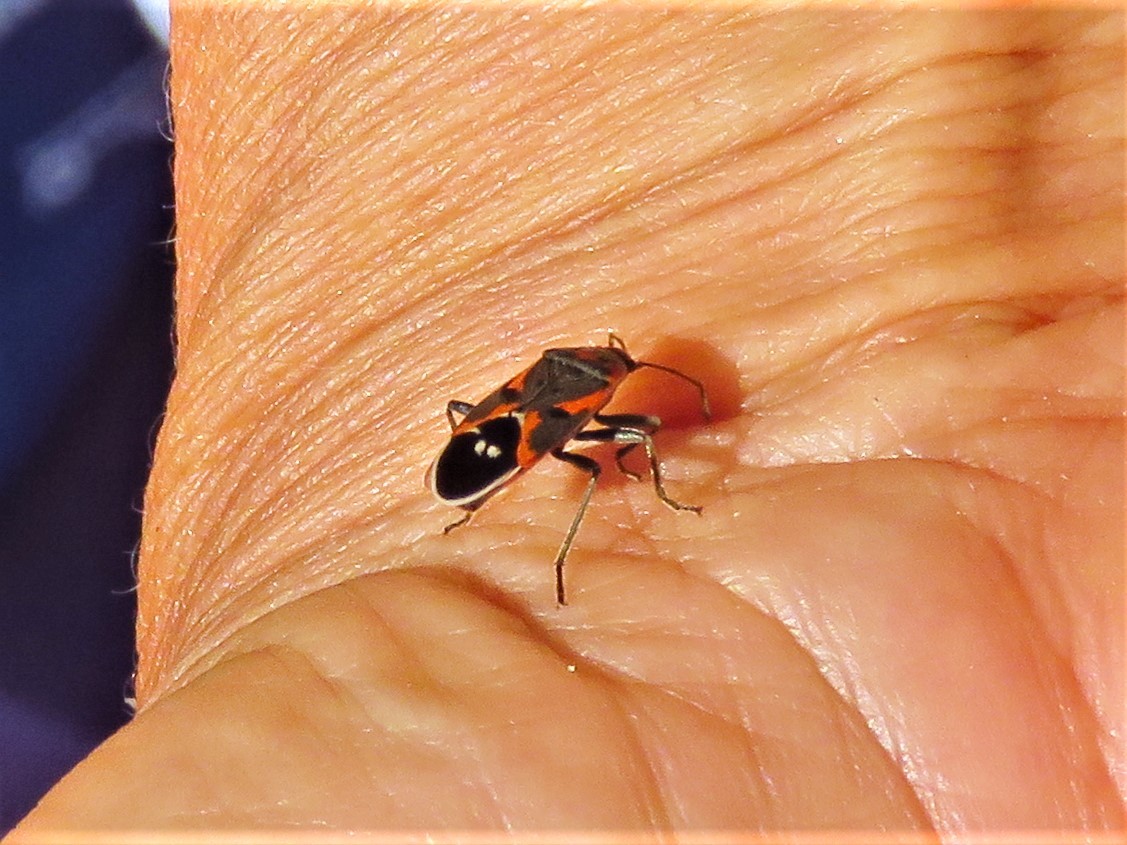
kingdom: Animalia
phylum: Arthropoda
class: Insecta
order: Hemiptera
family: Lygaeidae
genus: Lygaeus
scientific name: Lygaeus kalmii
